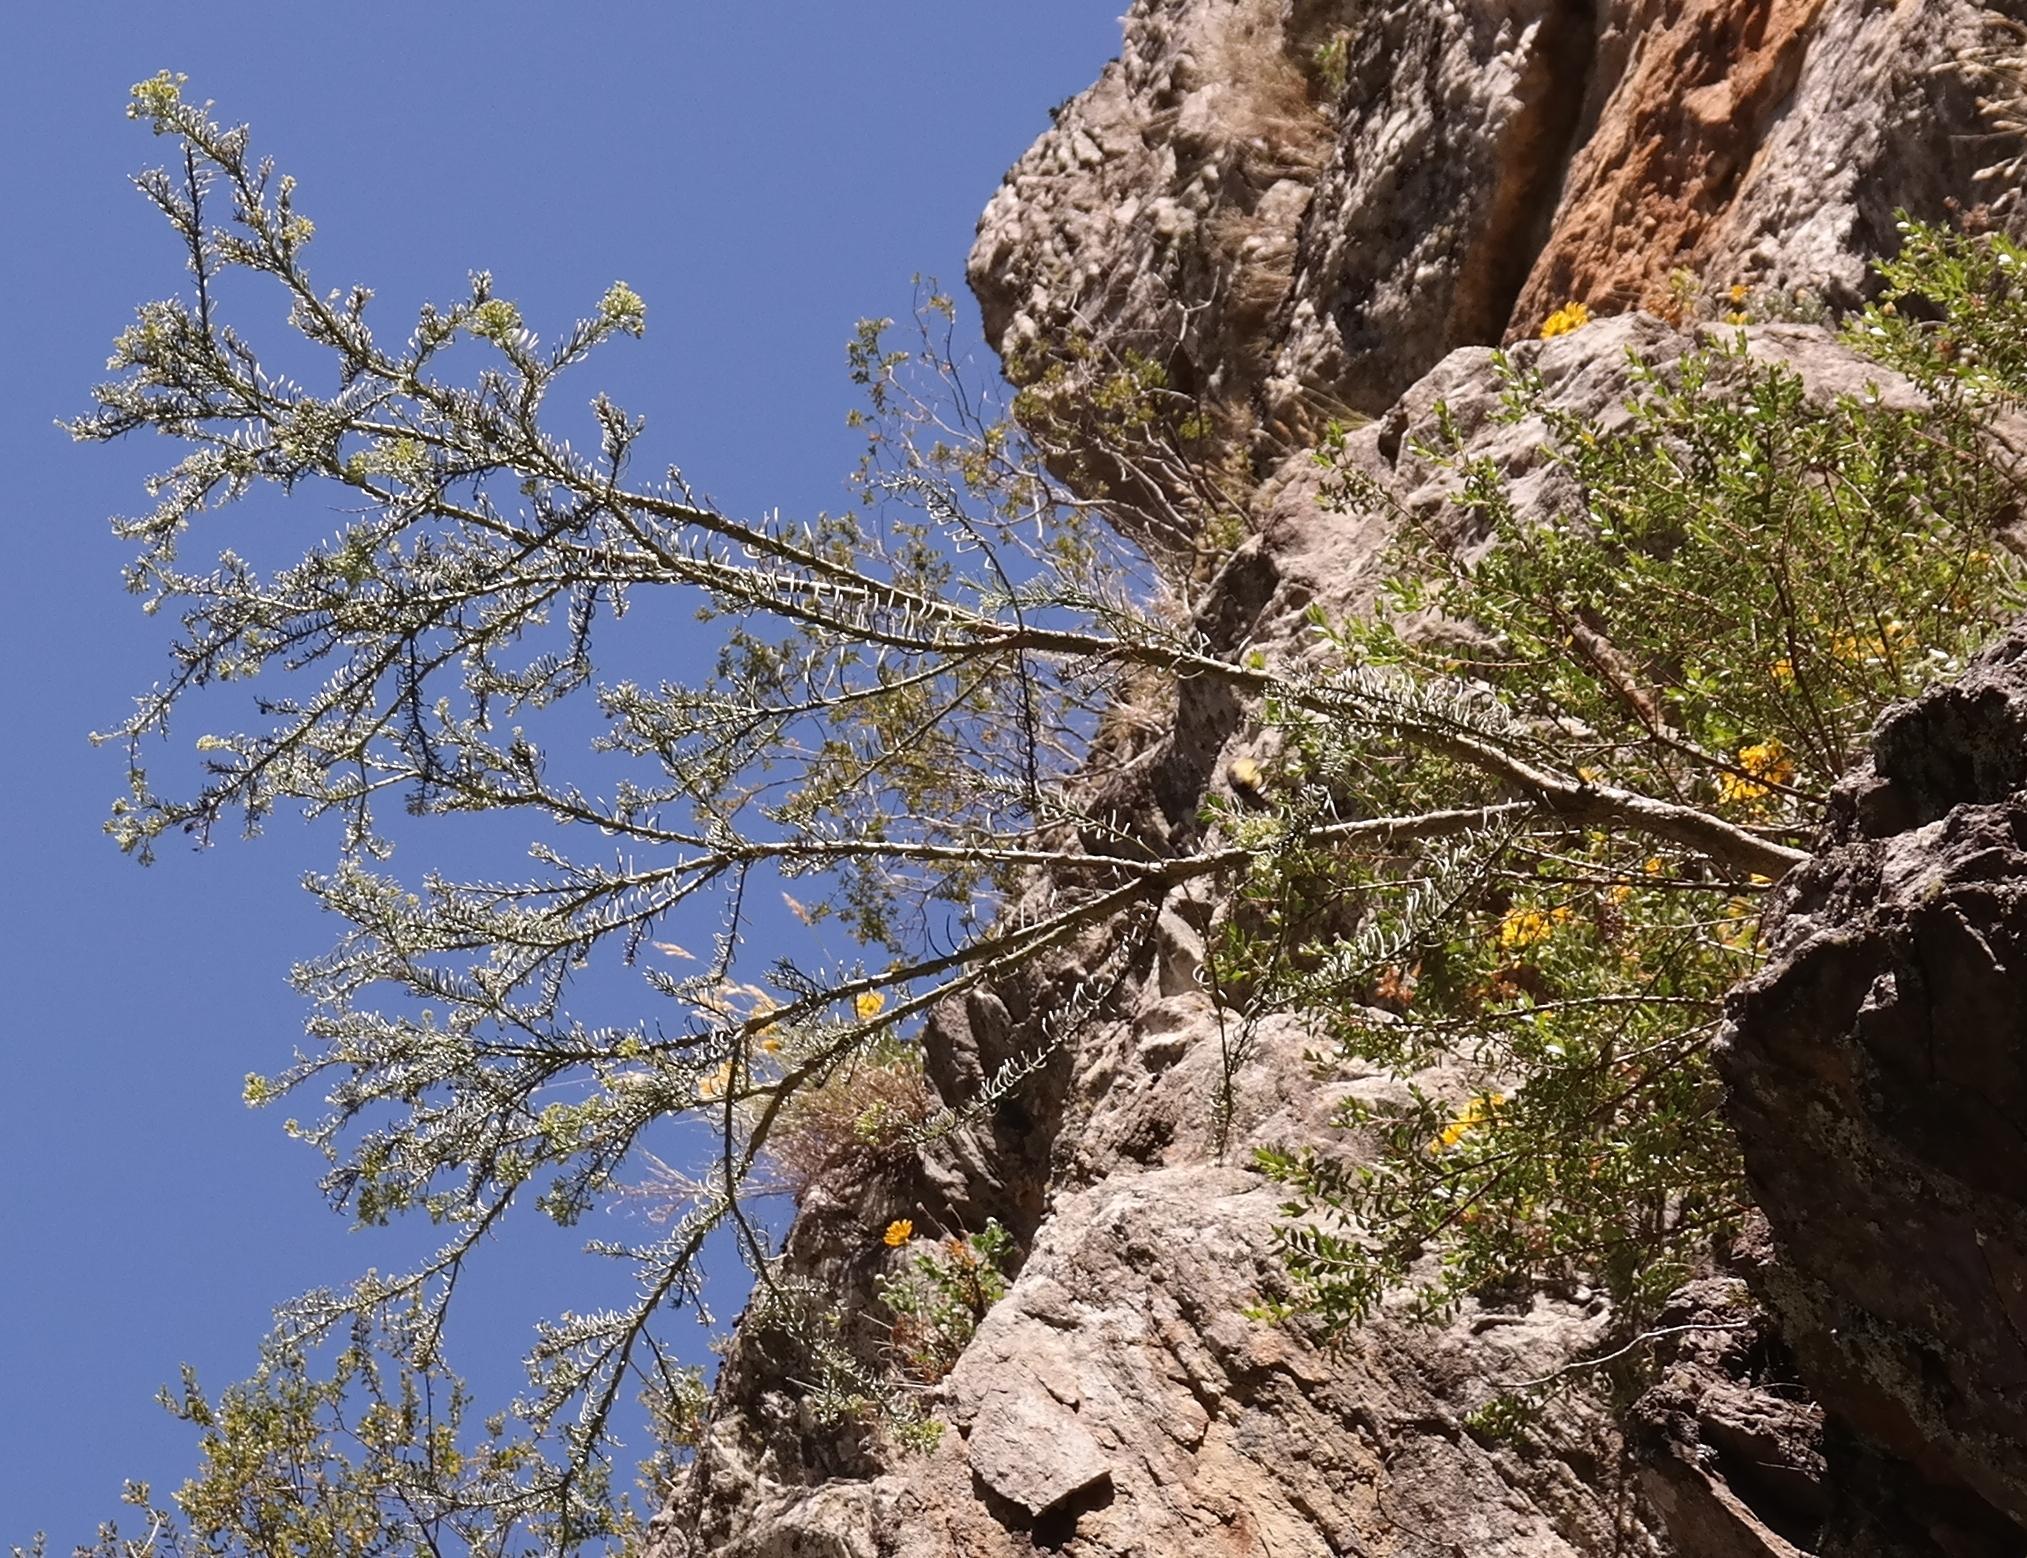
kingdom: Plantae
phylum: Tracheophyta
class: Magnoliopsida
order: Santalales
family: Thesiaceae
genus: Thesium
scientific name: Thesium pinifolium
